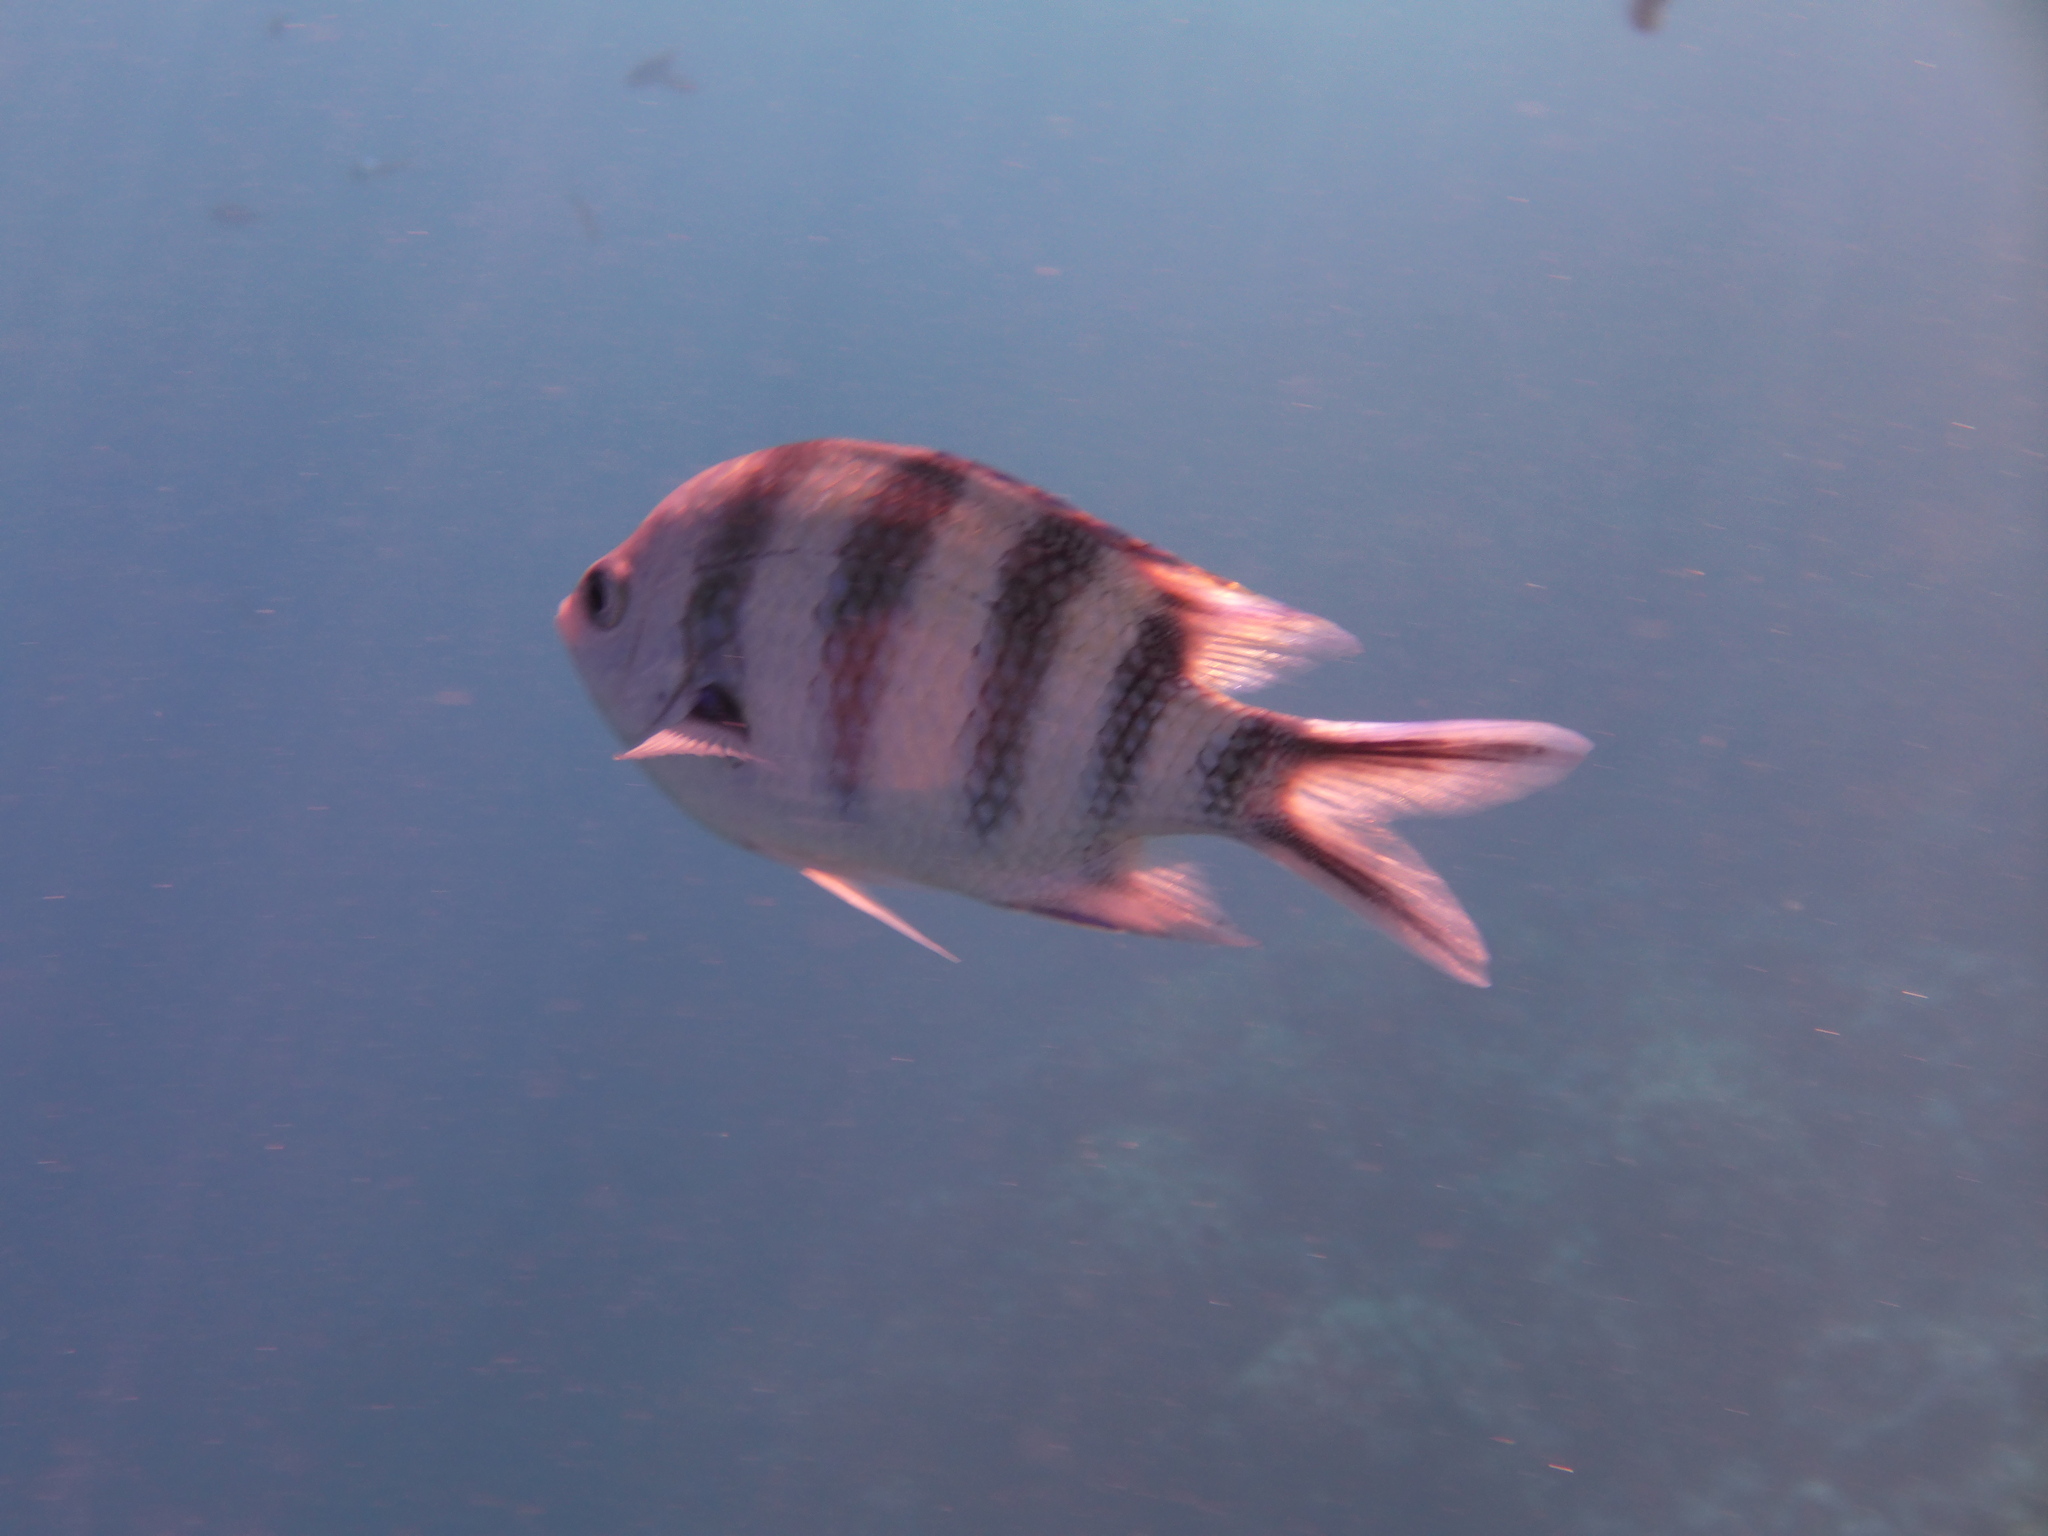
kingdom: Animalia
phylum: Chordata
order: Perciformes
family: Pomacentridae
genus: Abudefduf
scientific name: Abudefduf sexfasciatus
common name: Scissortail sergeant
